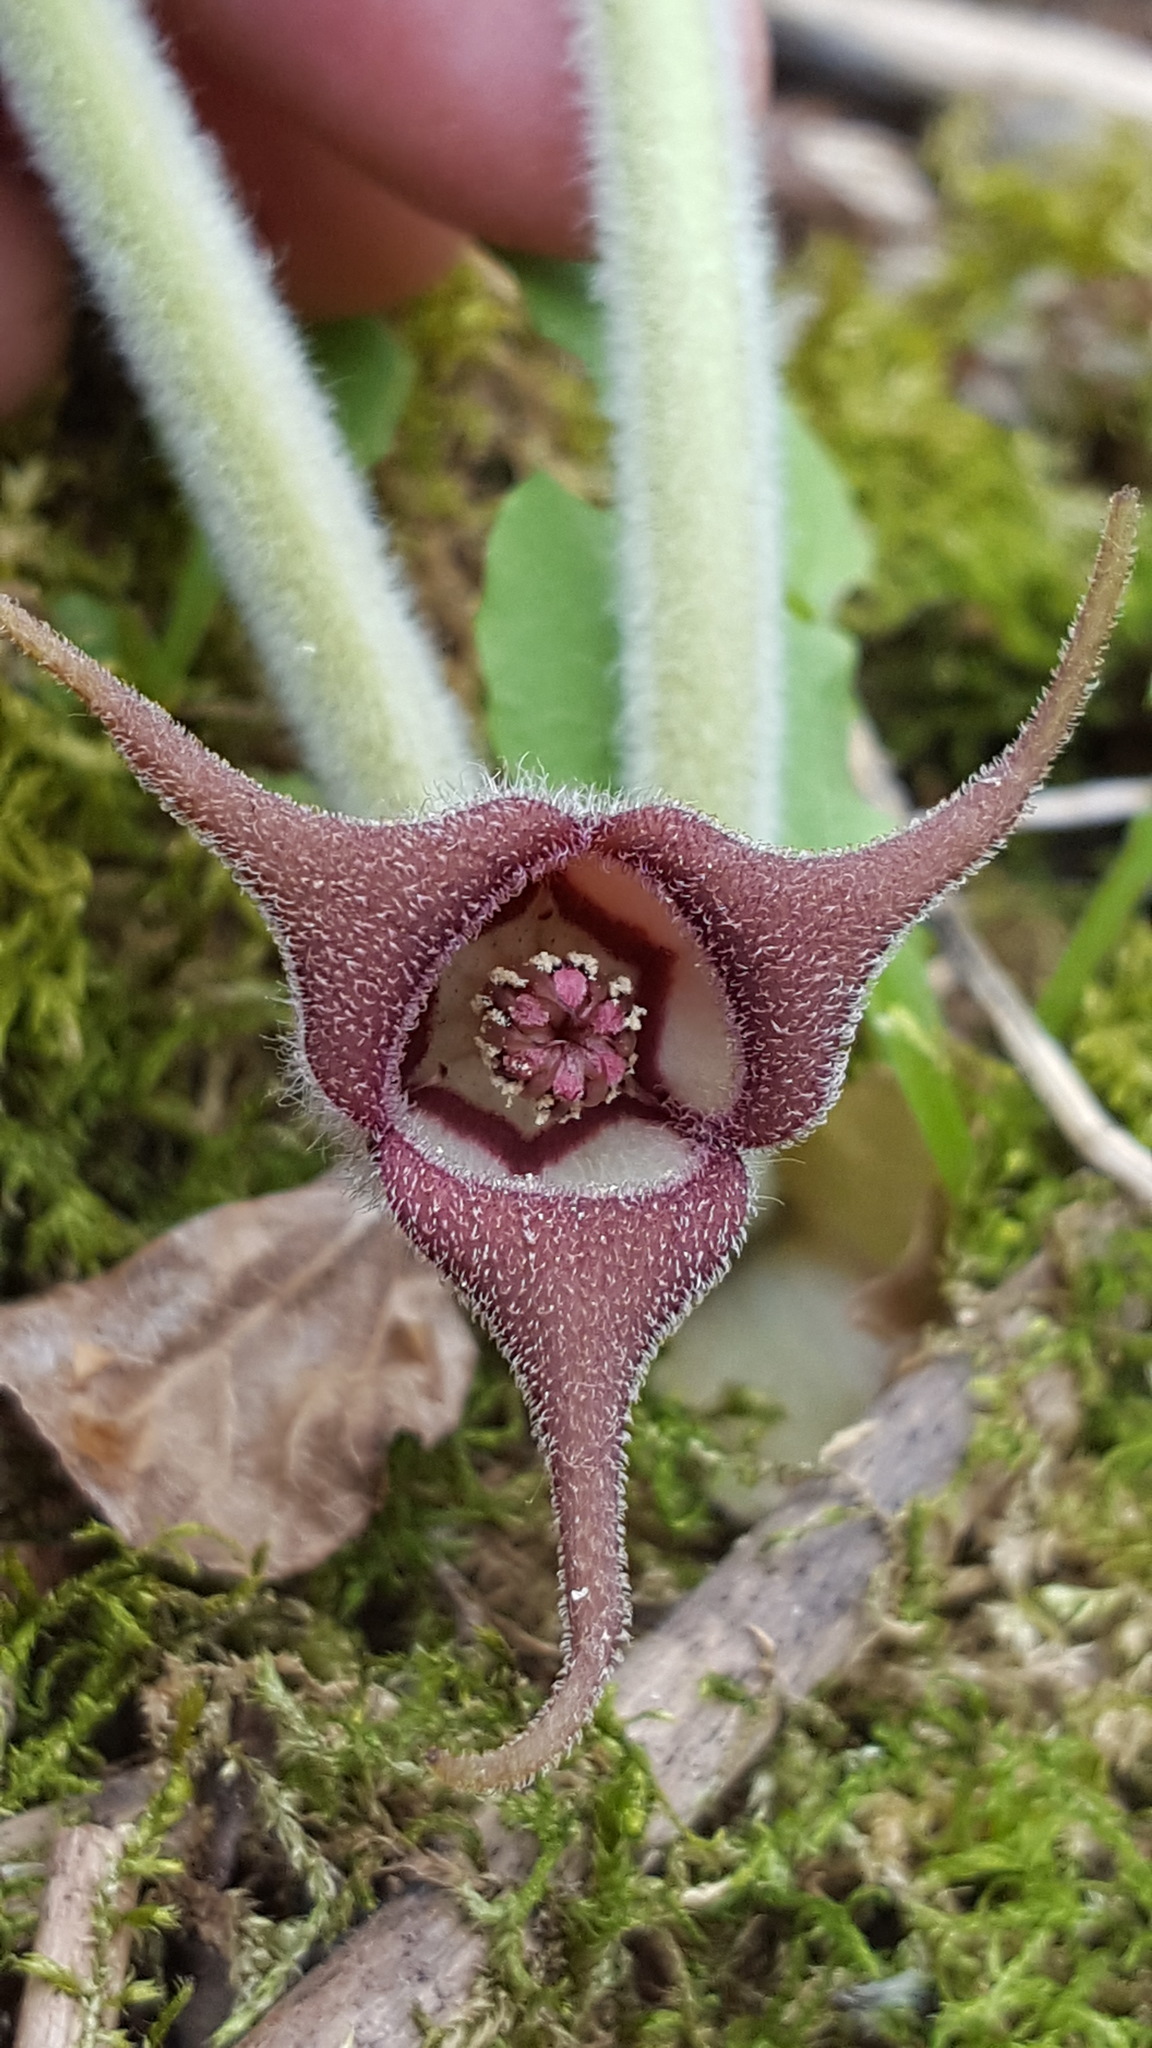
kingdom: Plantae
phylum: Tracheophyta
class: Magnoliopsida
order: Piperales
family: Aristolochiaceae
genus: Asarum
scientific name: Asarum canadense
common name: Wild ginger
